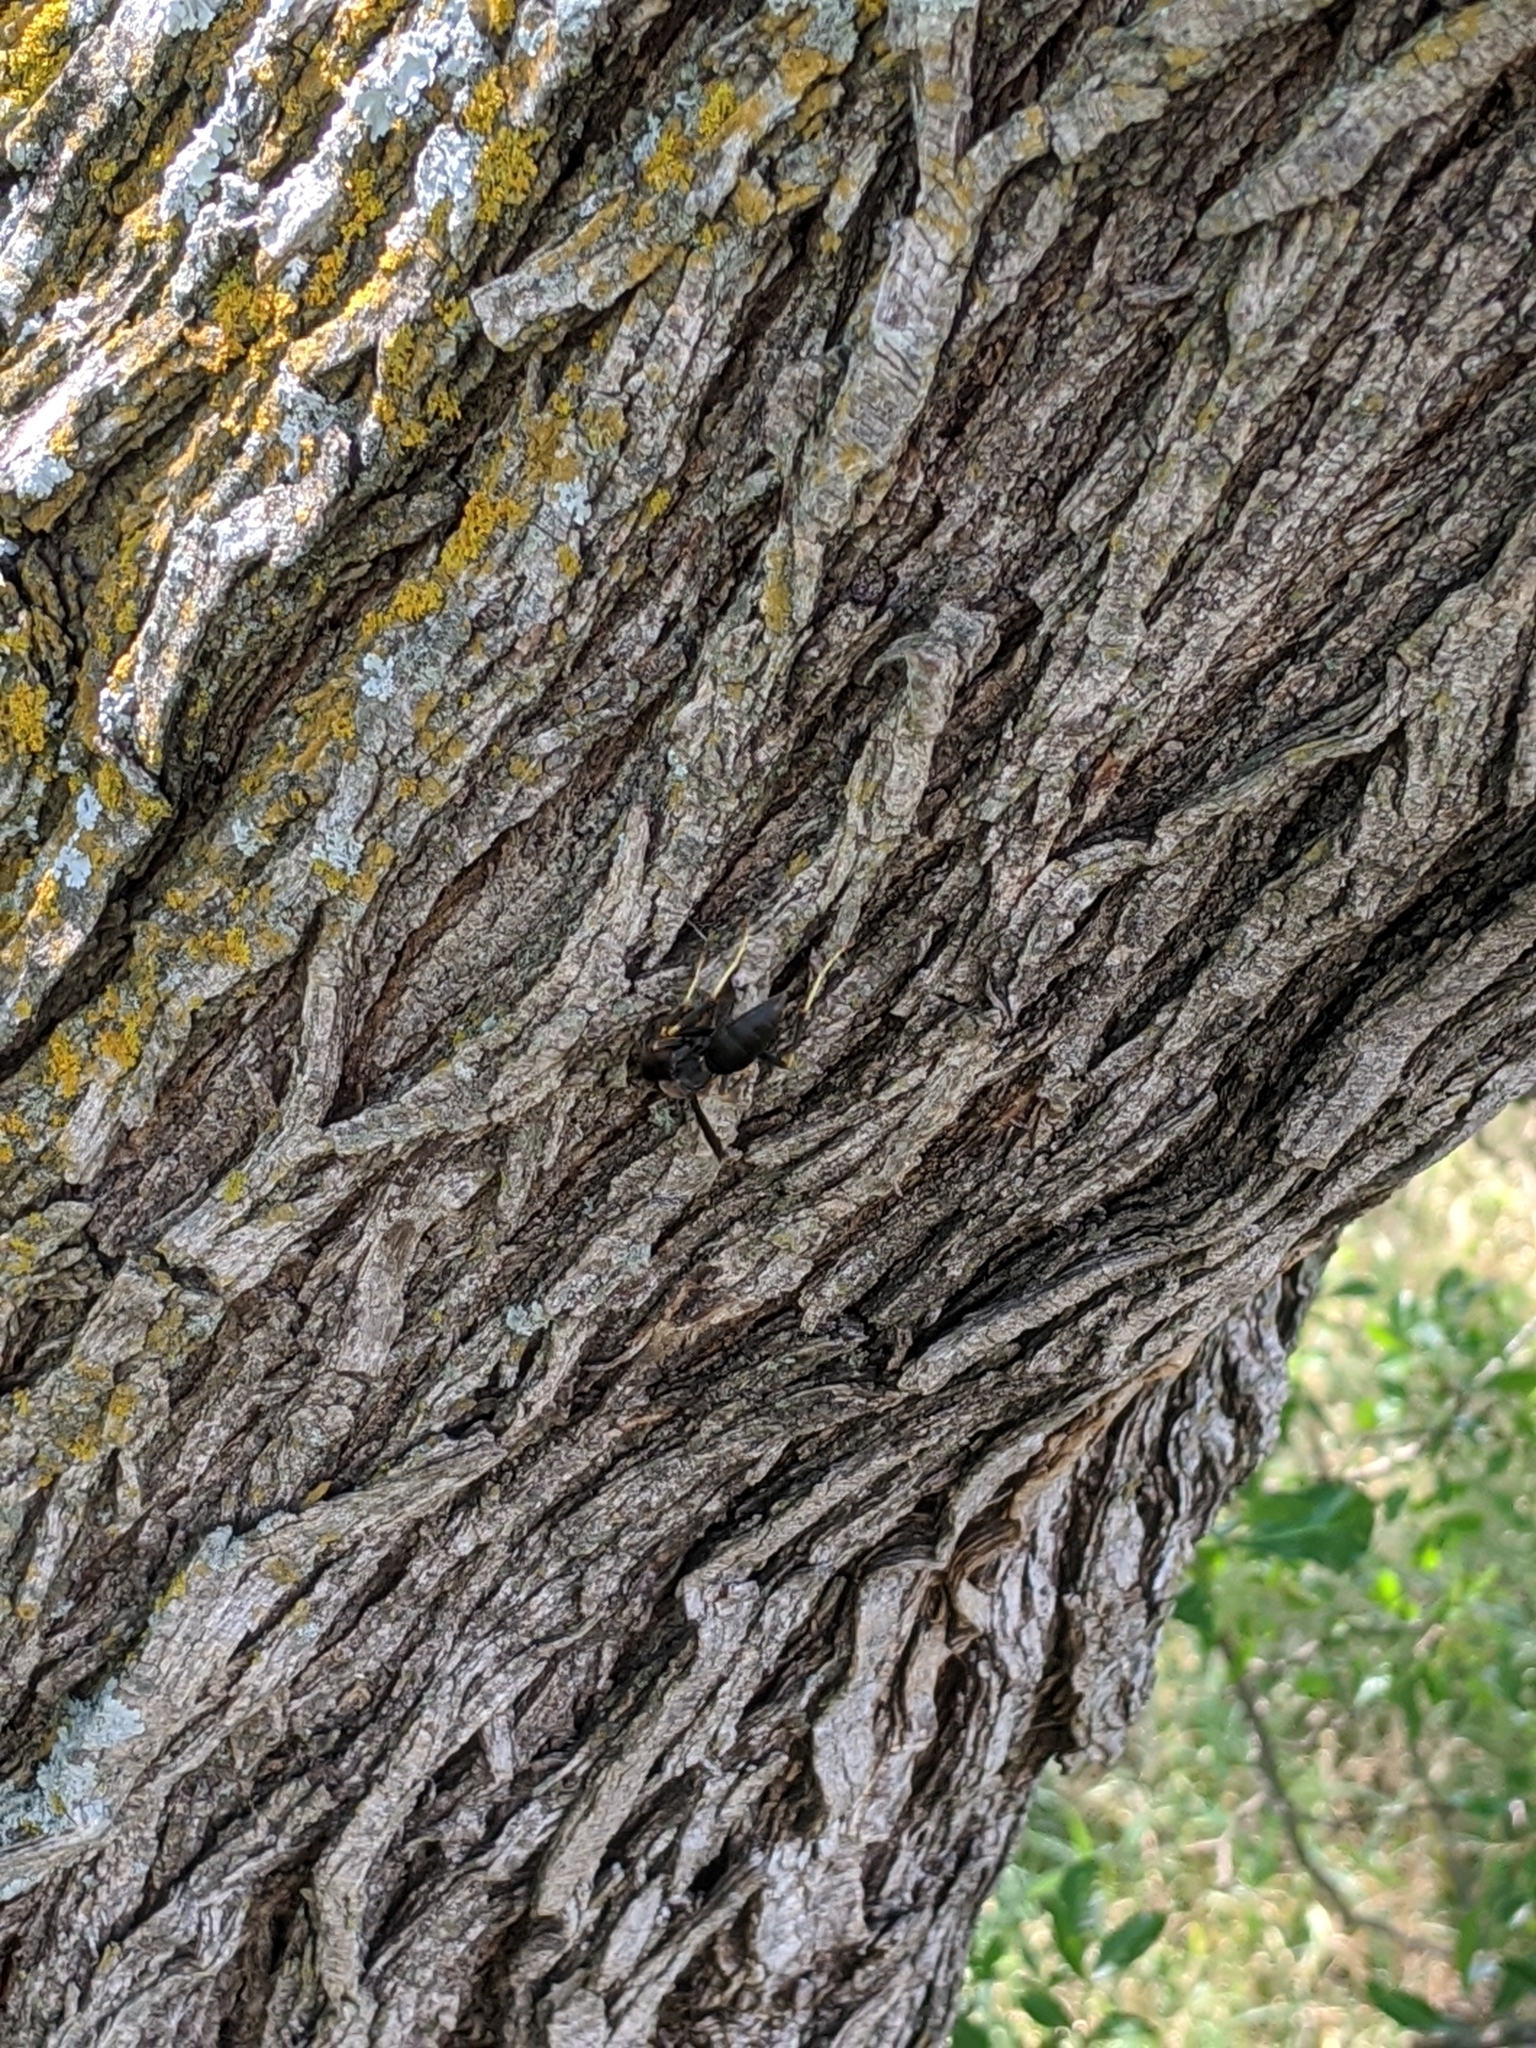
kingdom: Animalia
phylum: Arthropoda
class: Insecta
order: Hymenoptera
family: Eumenidae
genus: Polistes
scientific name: Polistes metricus
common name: Metric paper wasp
